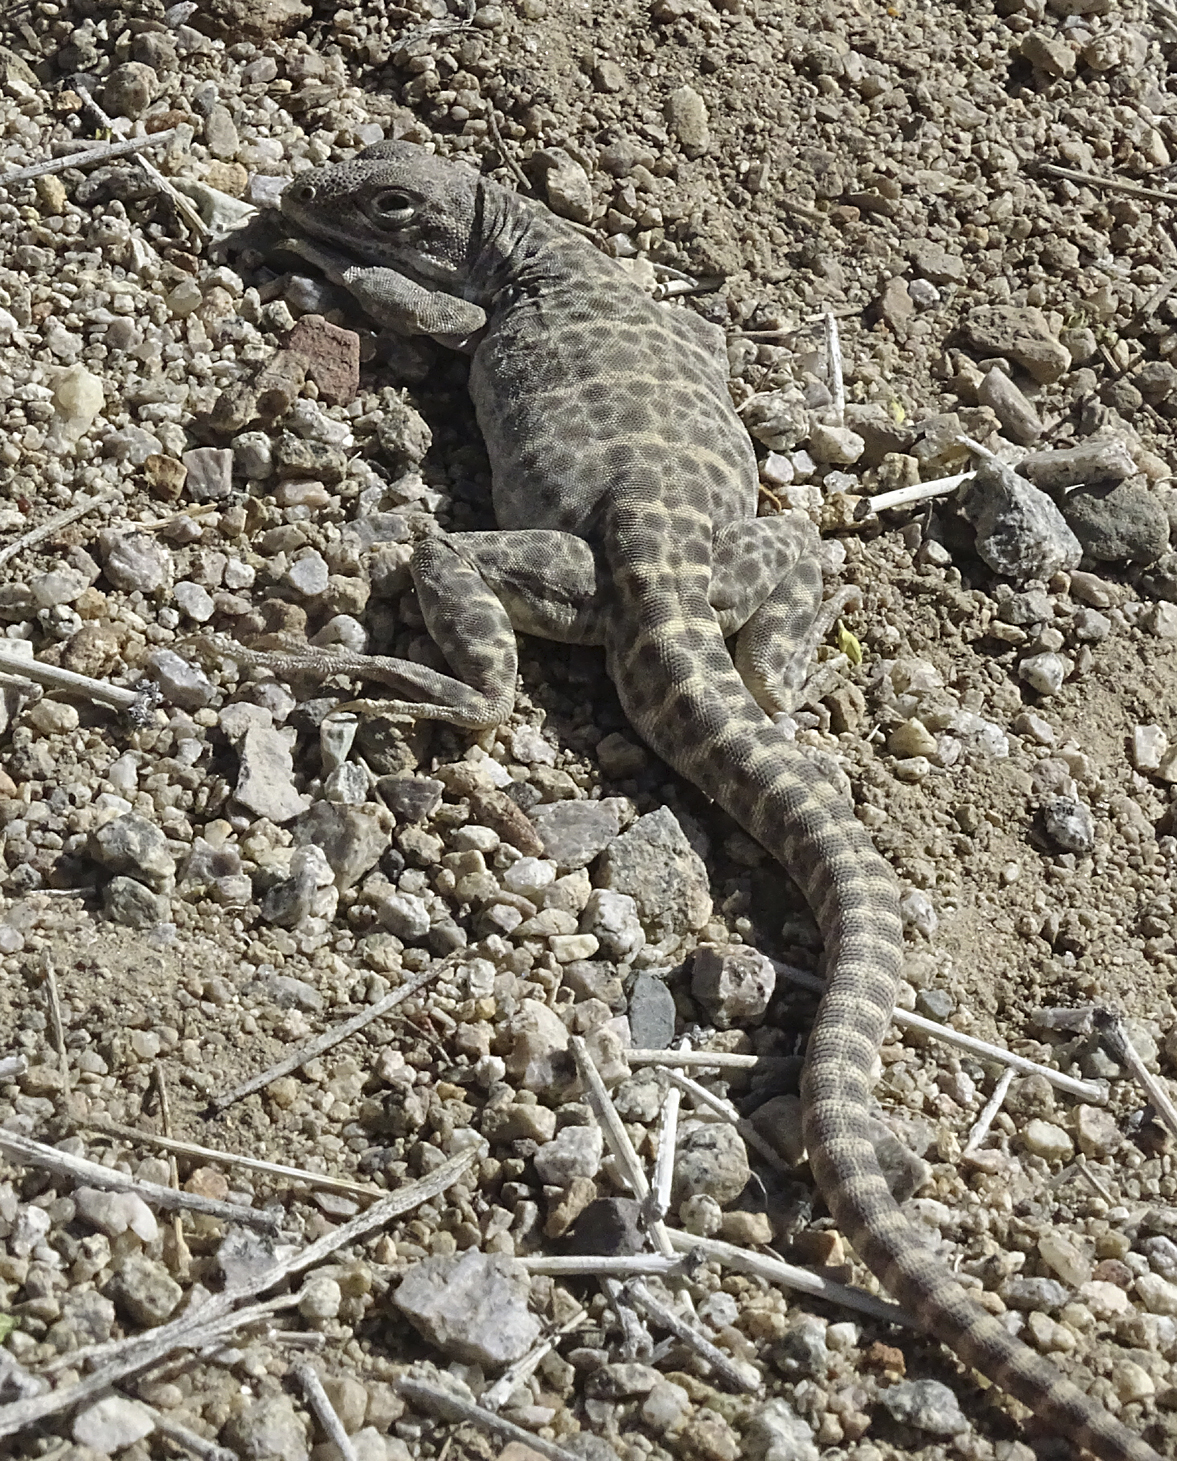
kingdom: Animalia
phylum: Chordata
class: Squamata
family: Crotaphytidae
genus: Gambelia
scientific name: Gambelia wislizenii
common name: Longnose leopard lizard
